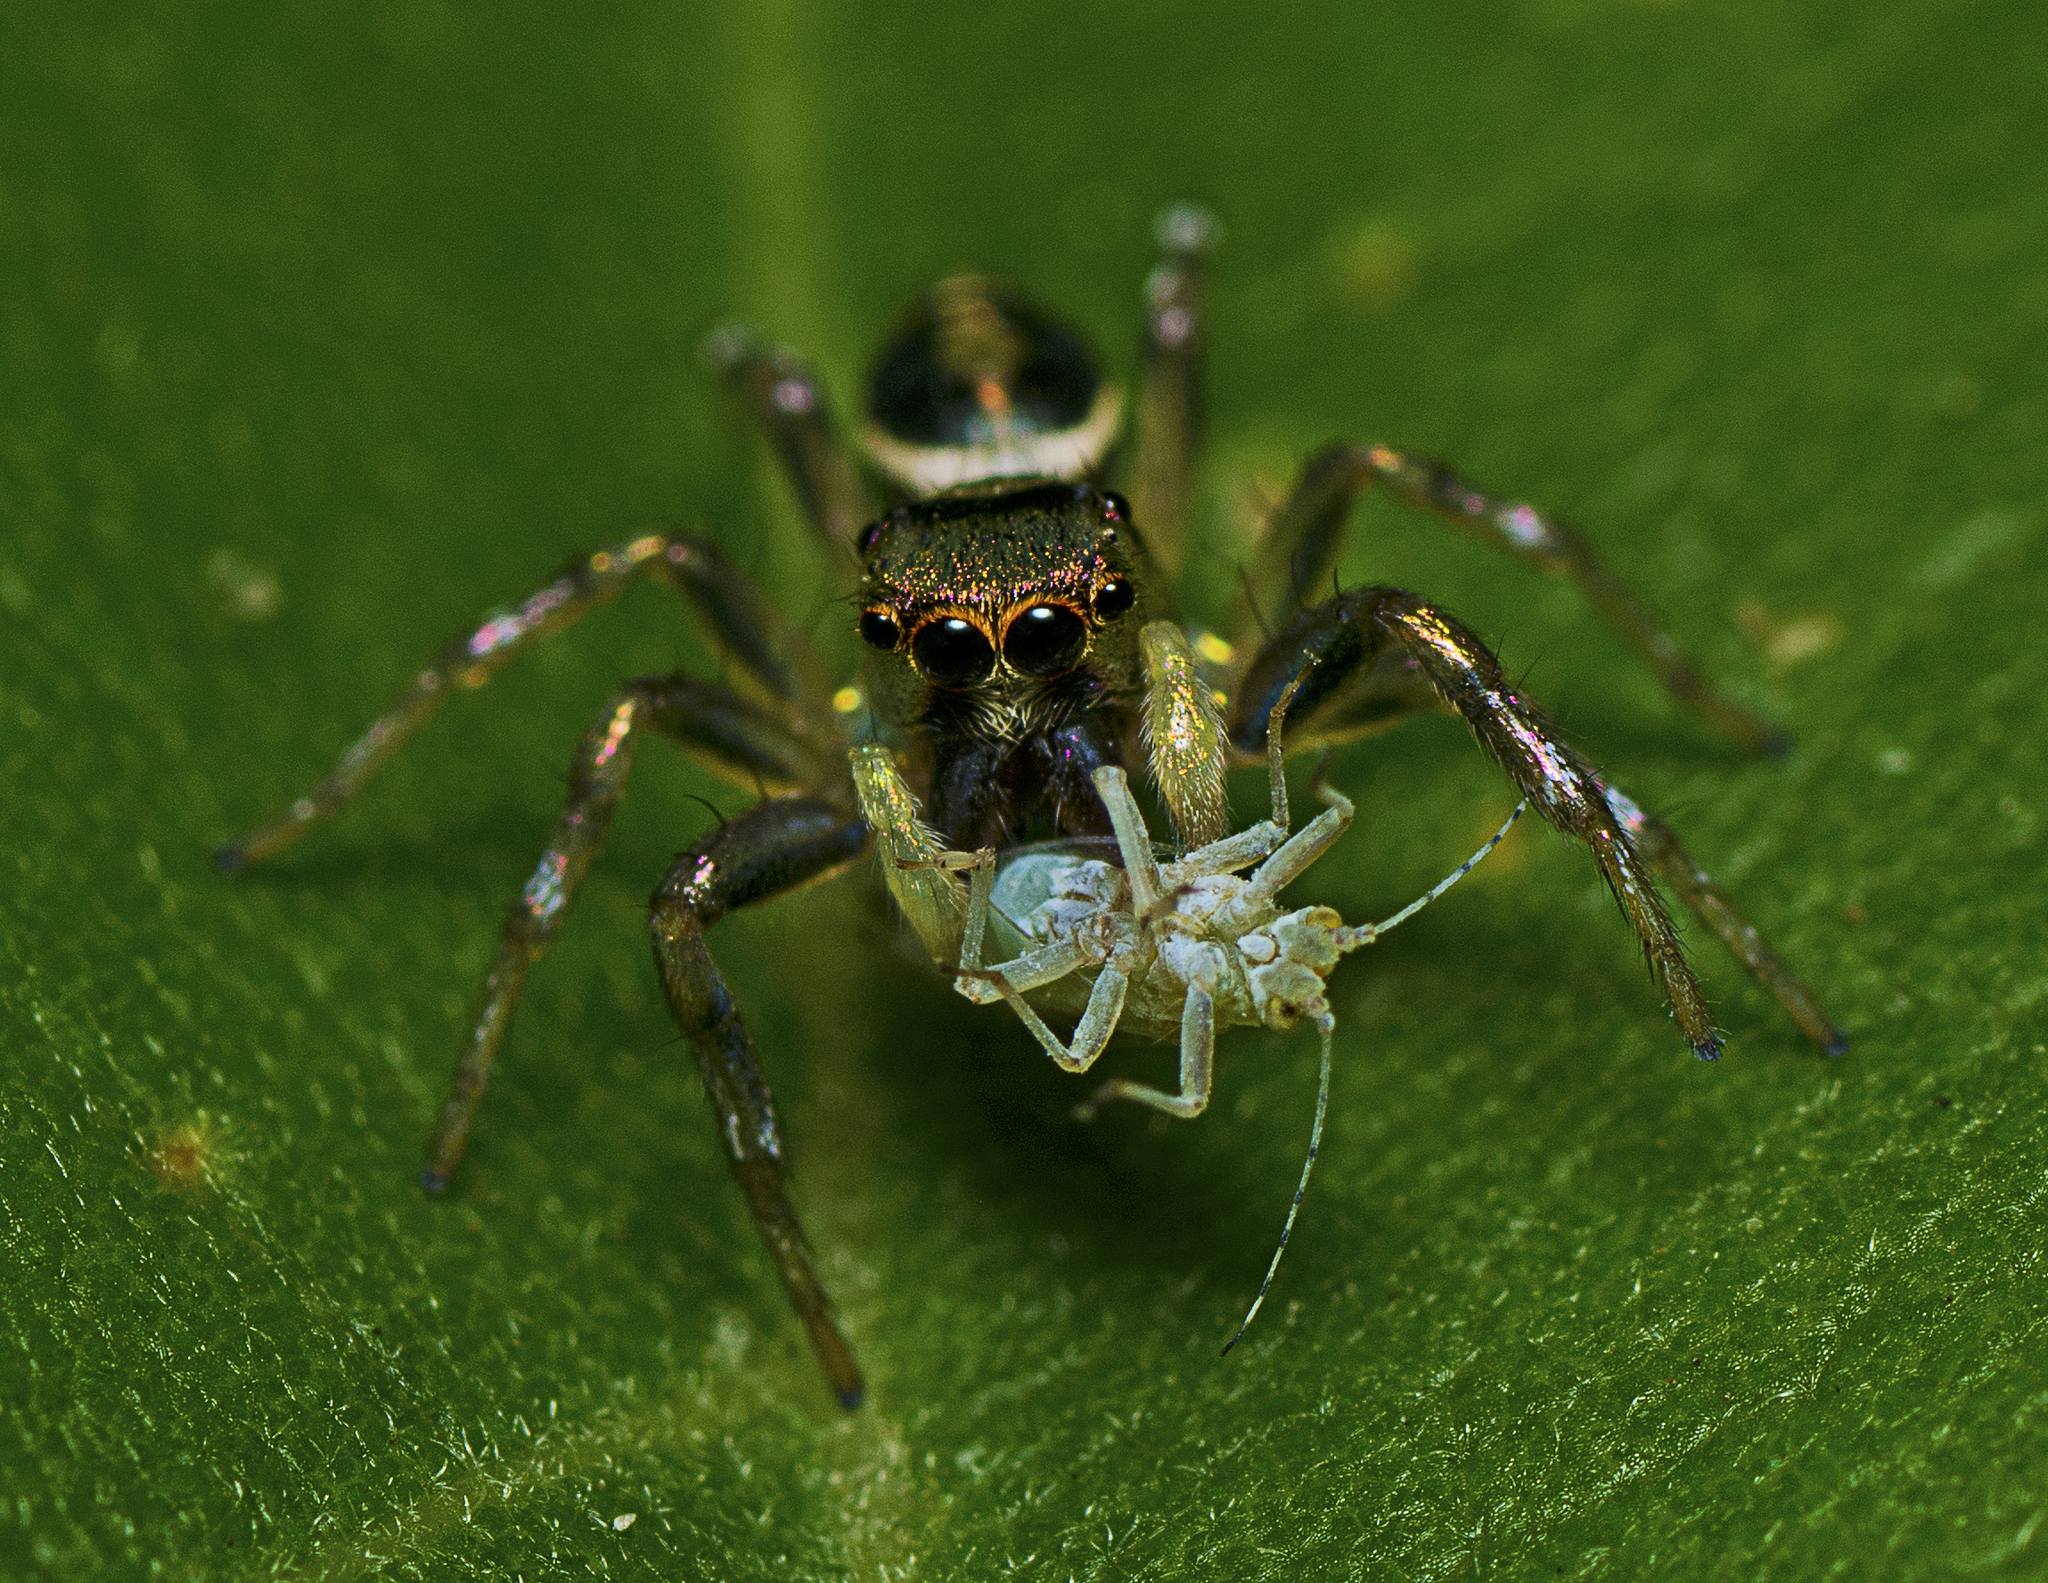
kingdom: Animalia
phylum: Arthropoda
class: Arachnida
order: Araneae
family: Salticidae
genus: Cosmophasis
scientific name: Cosmophasis thalassina
